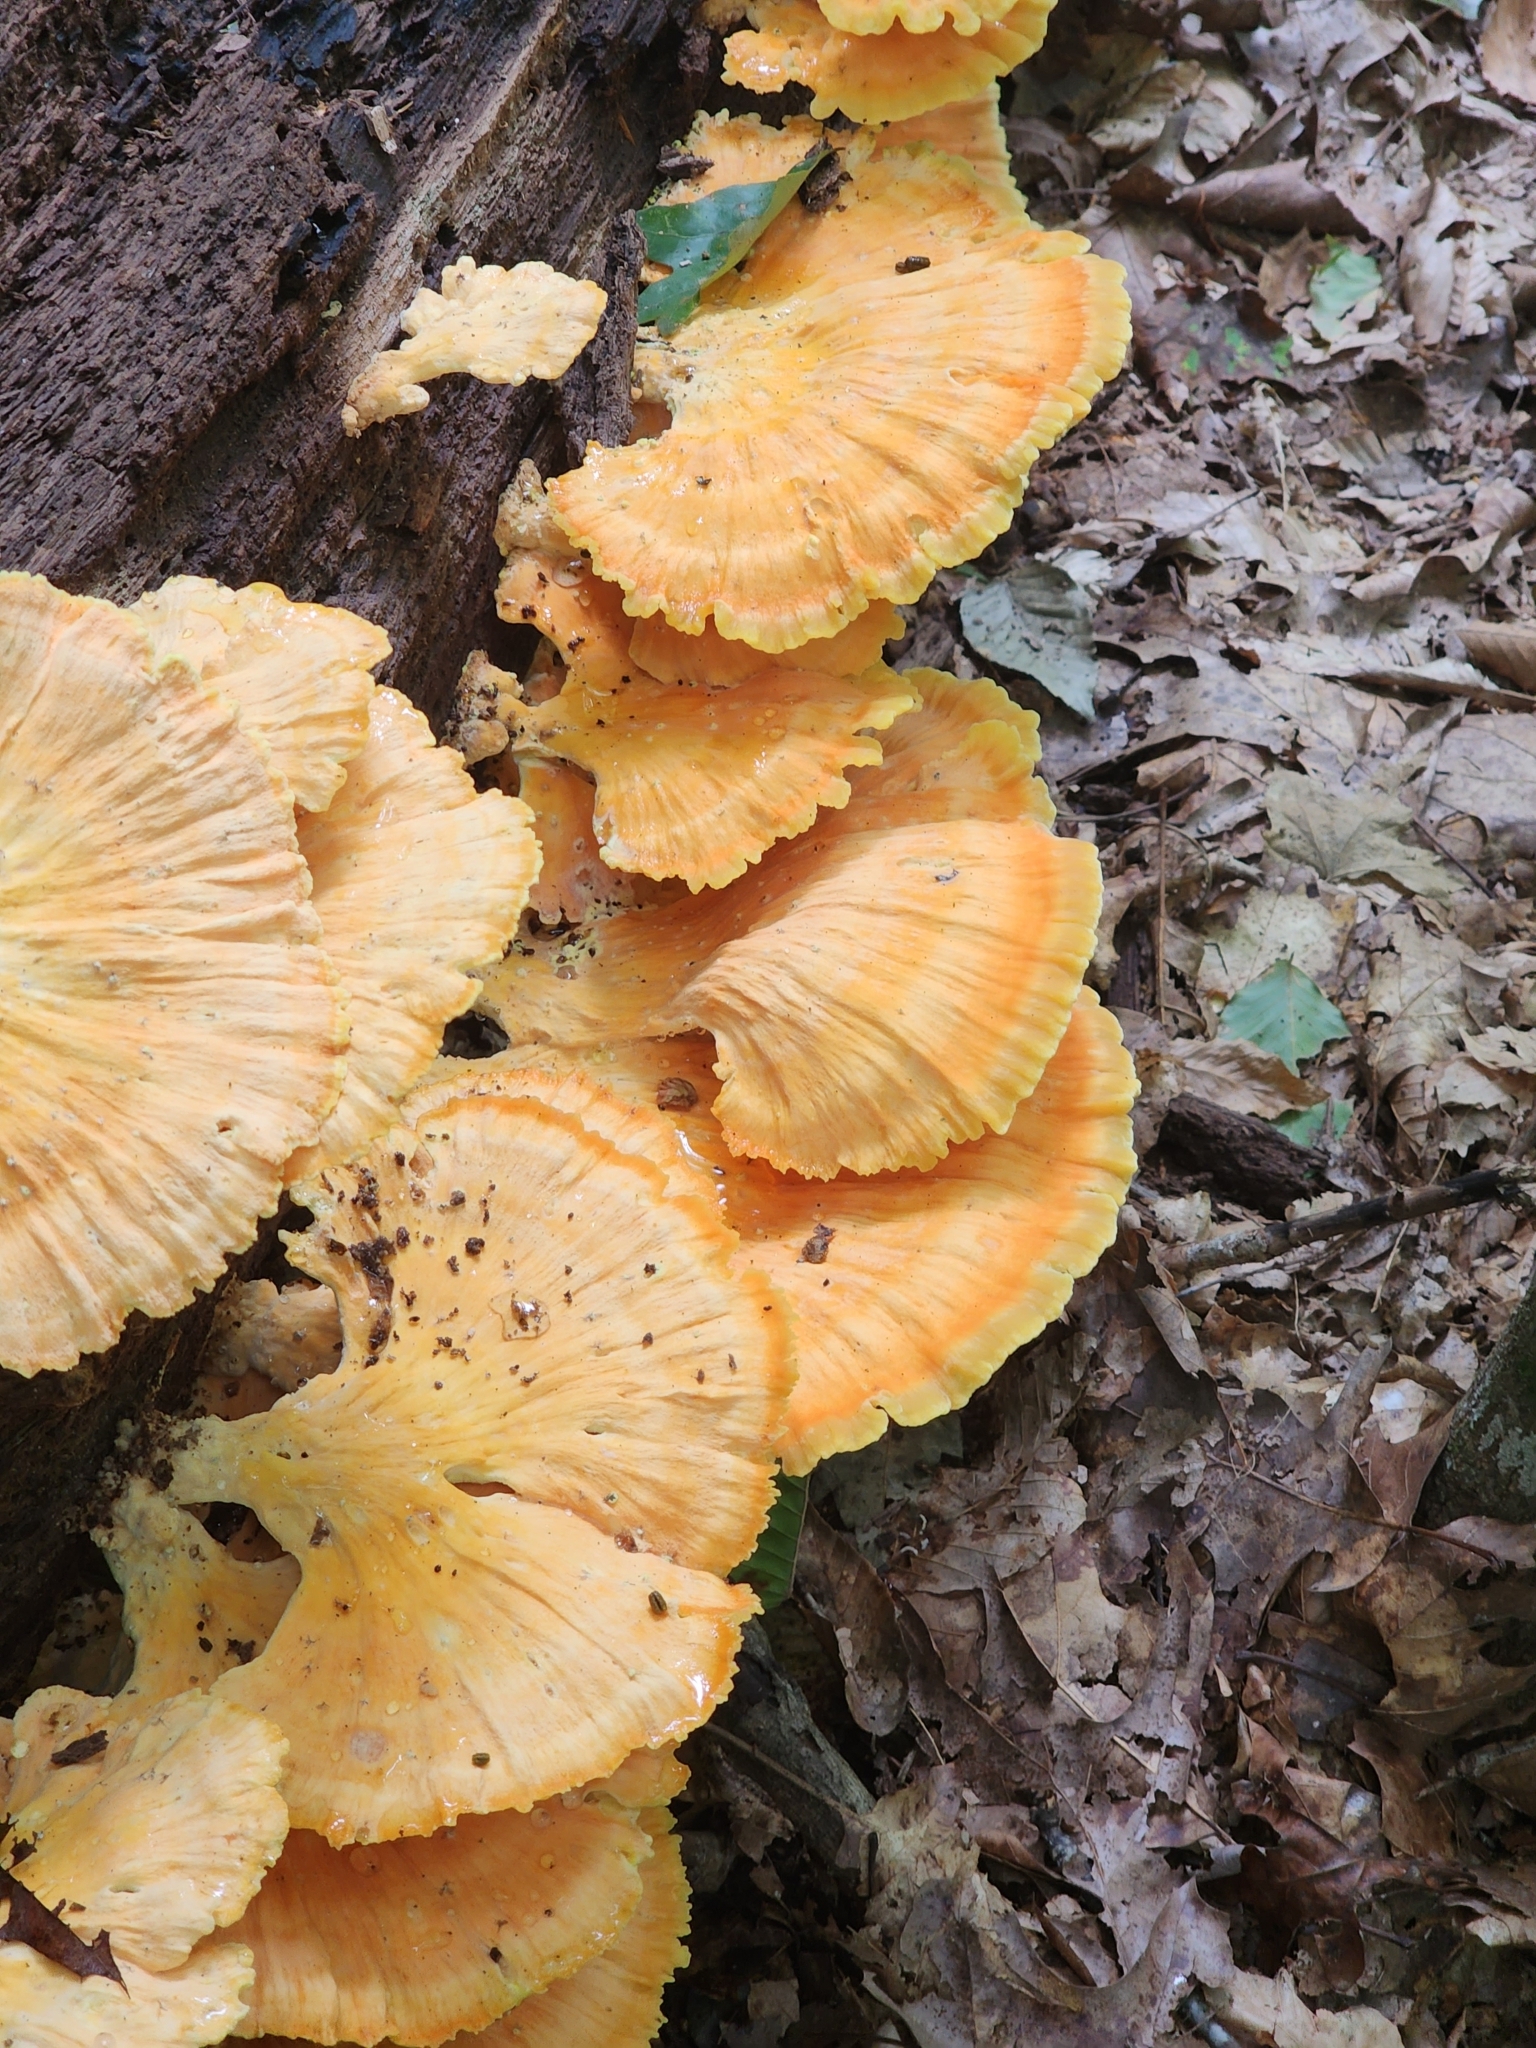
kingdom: Fungi
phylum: Basidiomycota
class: Agaricomycetes
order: Polyporales
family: Laetiporaceae
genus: Laetiporus
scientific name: Laetiporus sulphureus
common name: Chicken of the woods
